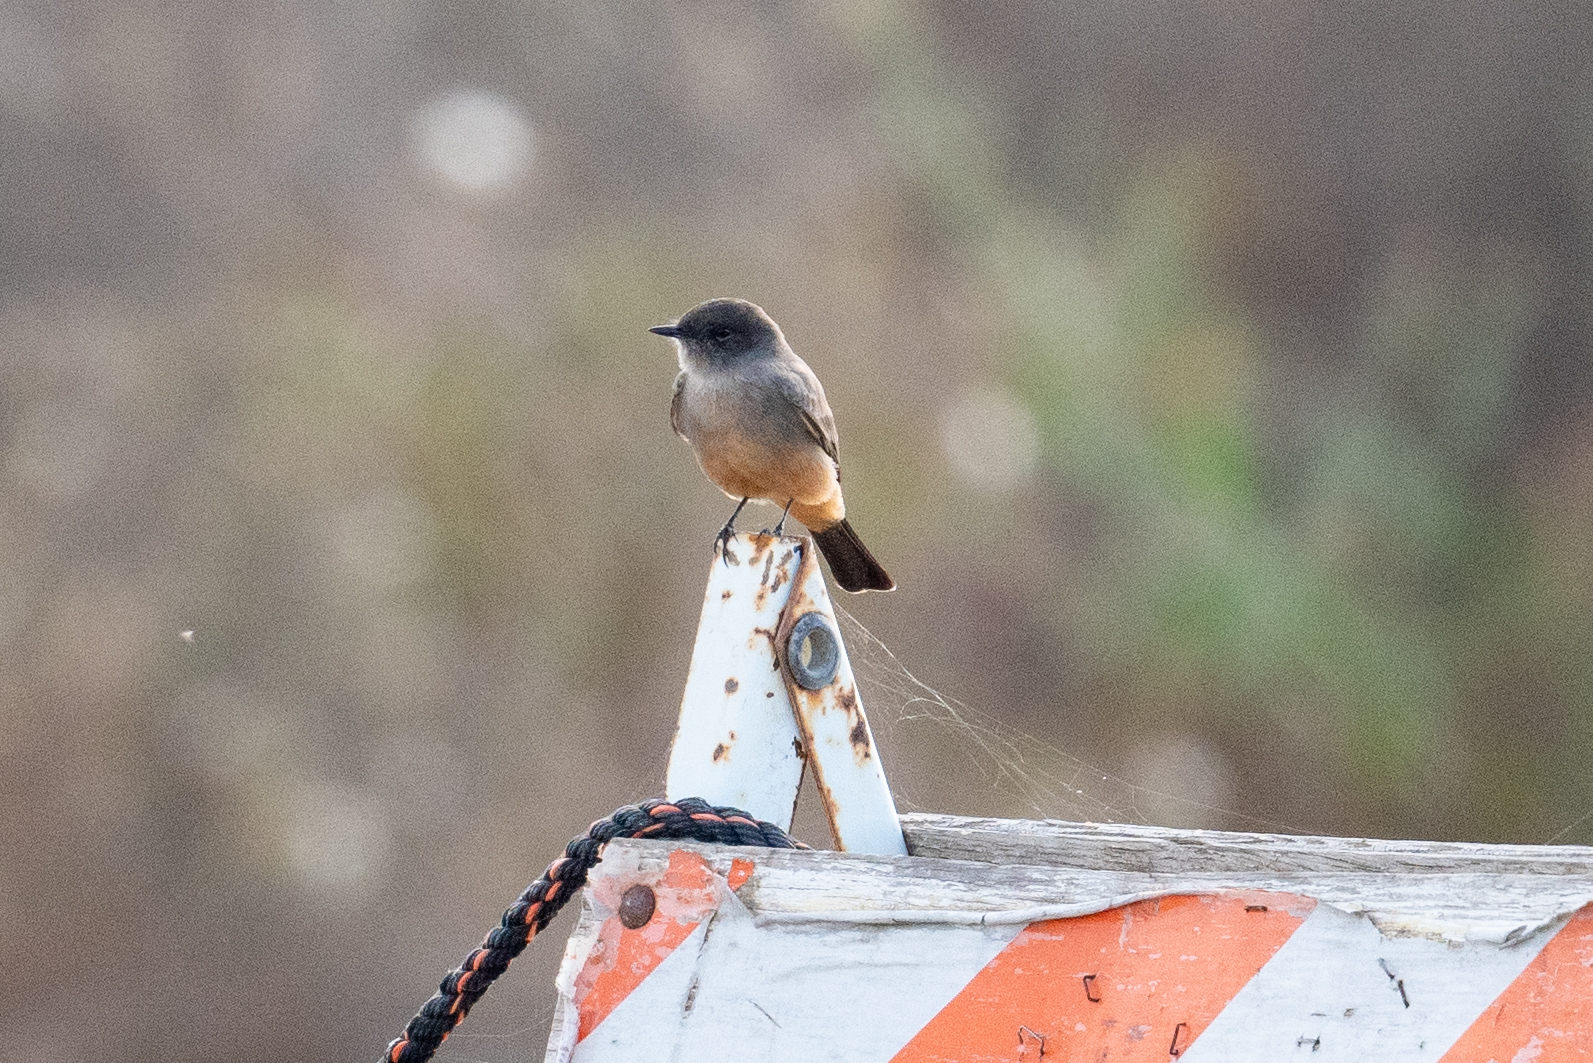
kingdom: Animalia
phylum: Chordata
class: Aves
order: Passeriformes
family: Tyrannidae
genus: Sayornis
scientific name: Sayornis saya
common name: Say's phoebe
